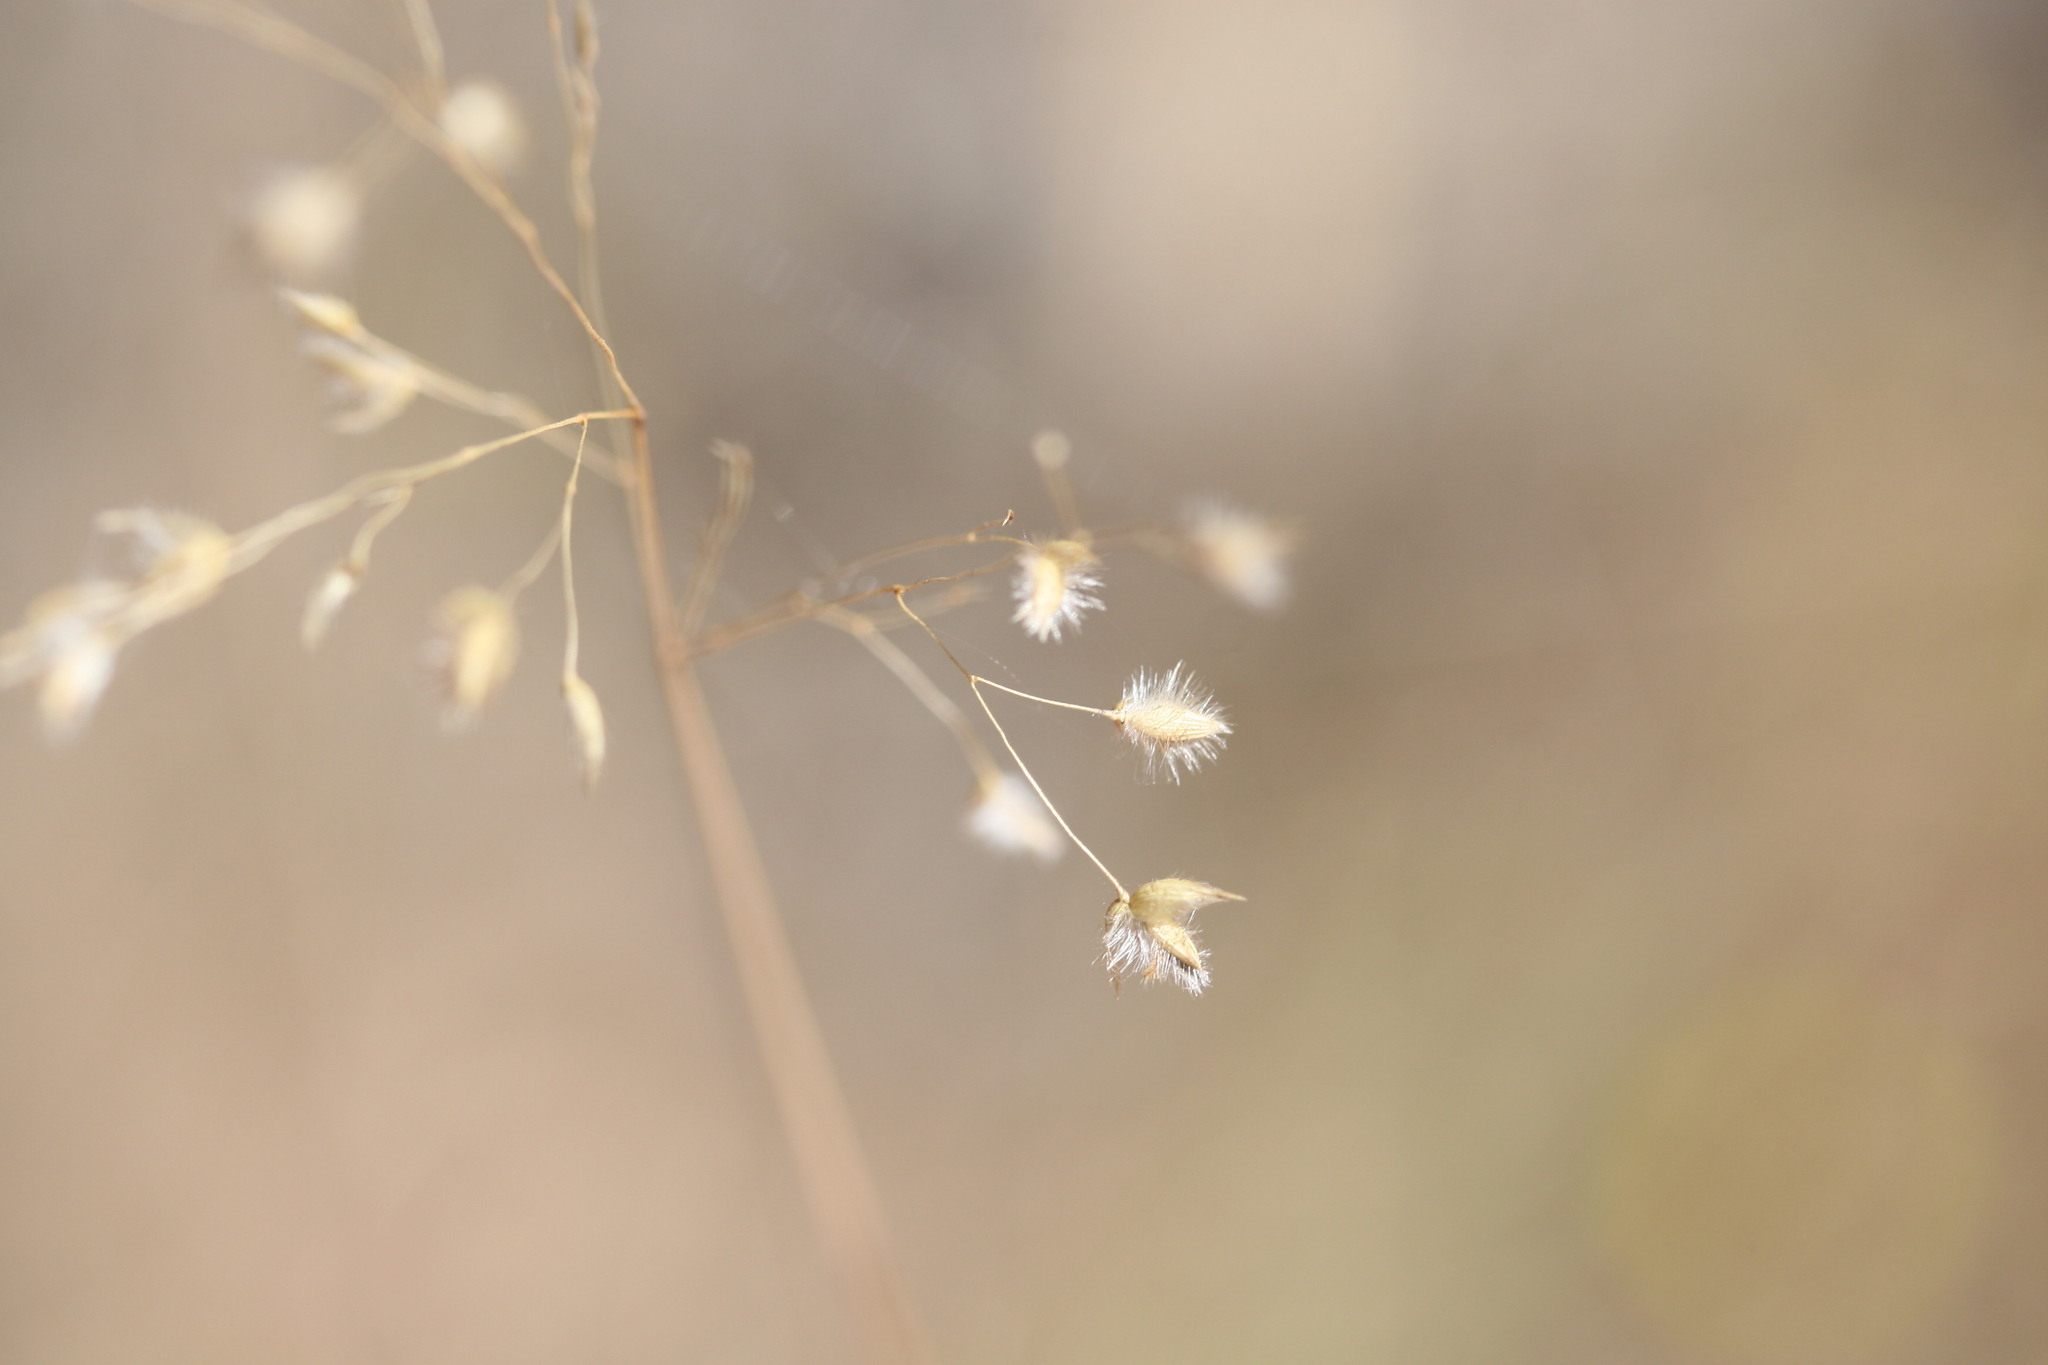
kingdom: Plantae
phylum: Tracheophyta
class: Liliopsida
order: Poales
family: Poaceae
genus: Eriachne
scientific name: Eriachne obtusa
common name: Northern wanderrie grass
